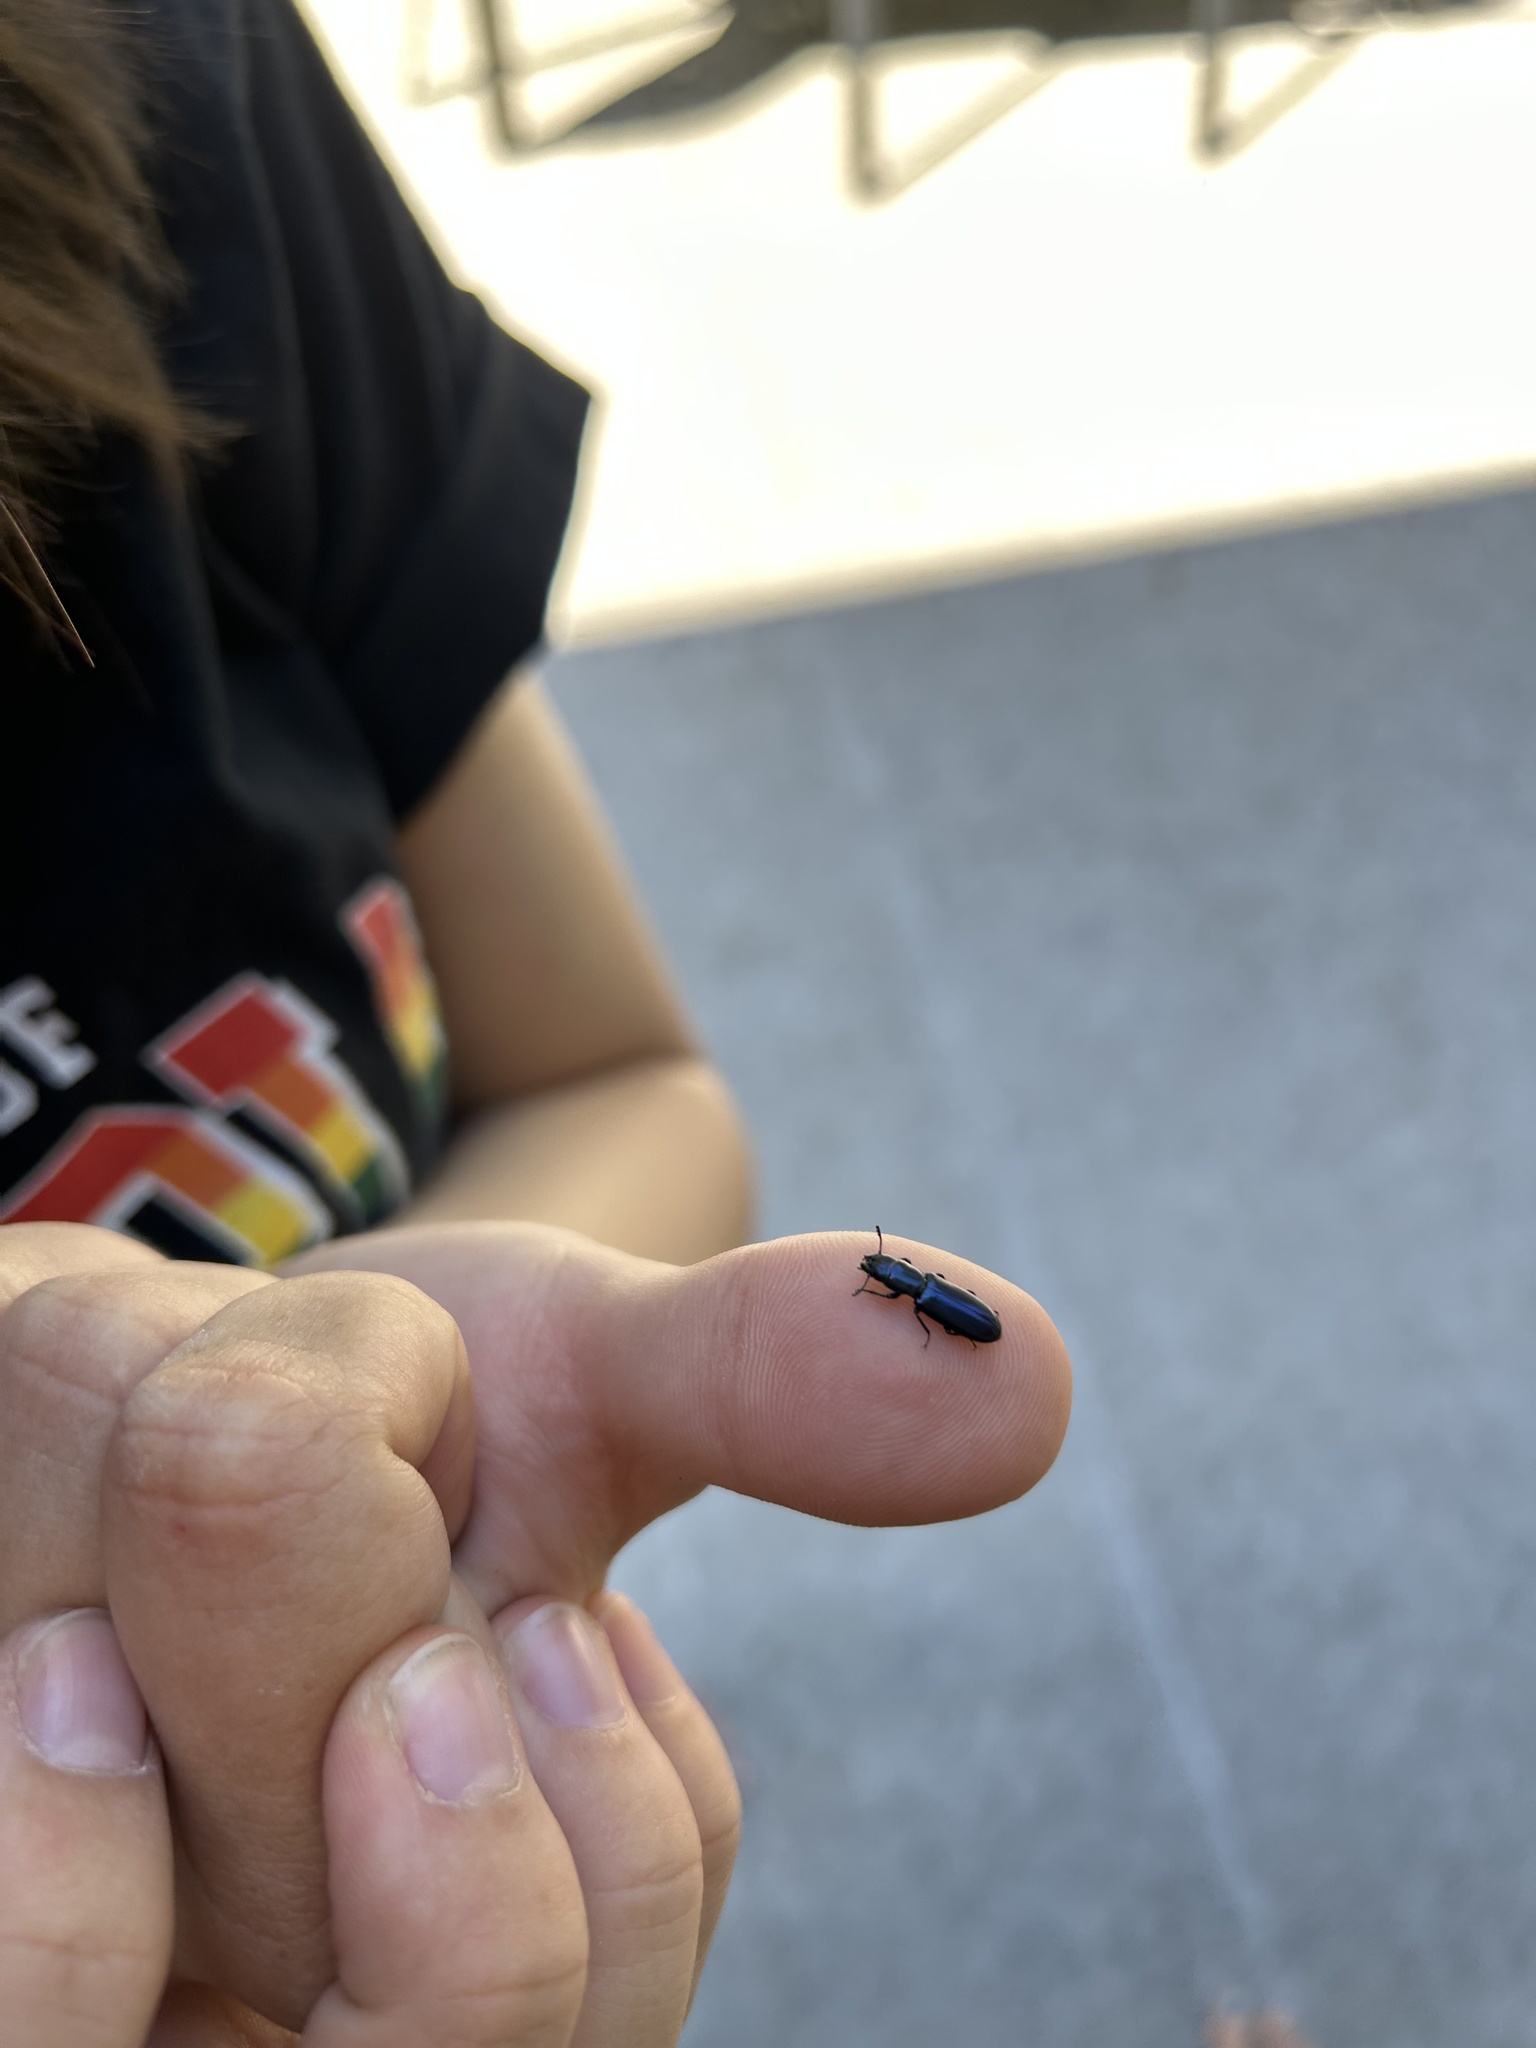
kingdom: Animalia
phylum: Arthropoda
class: Insecta
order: Coleoptera
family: Trogossitidae
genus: Temnoscheila
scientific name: Temnoscheila chlorodia
